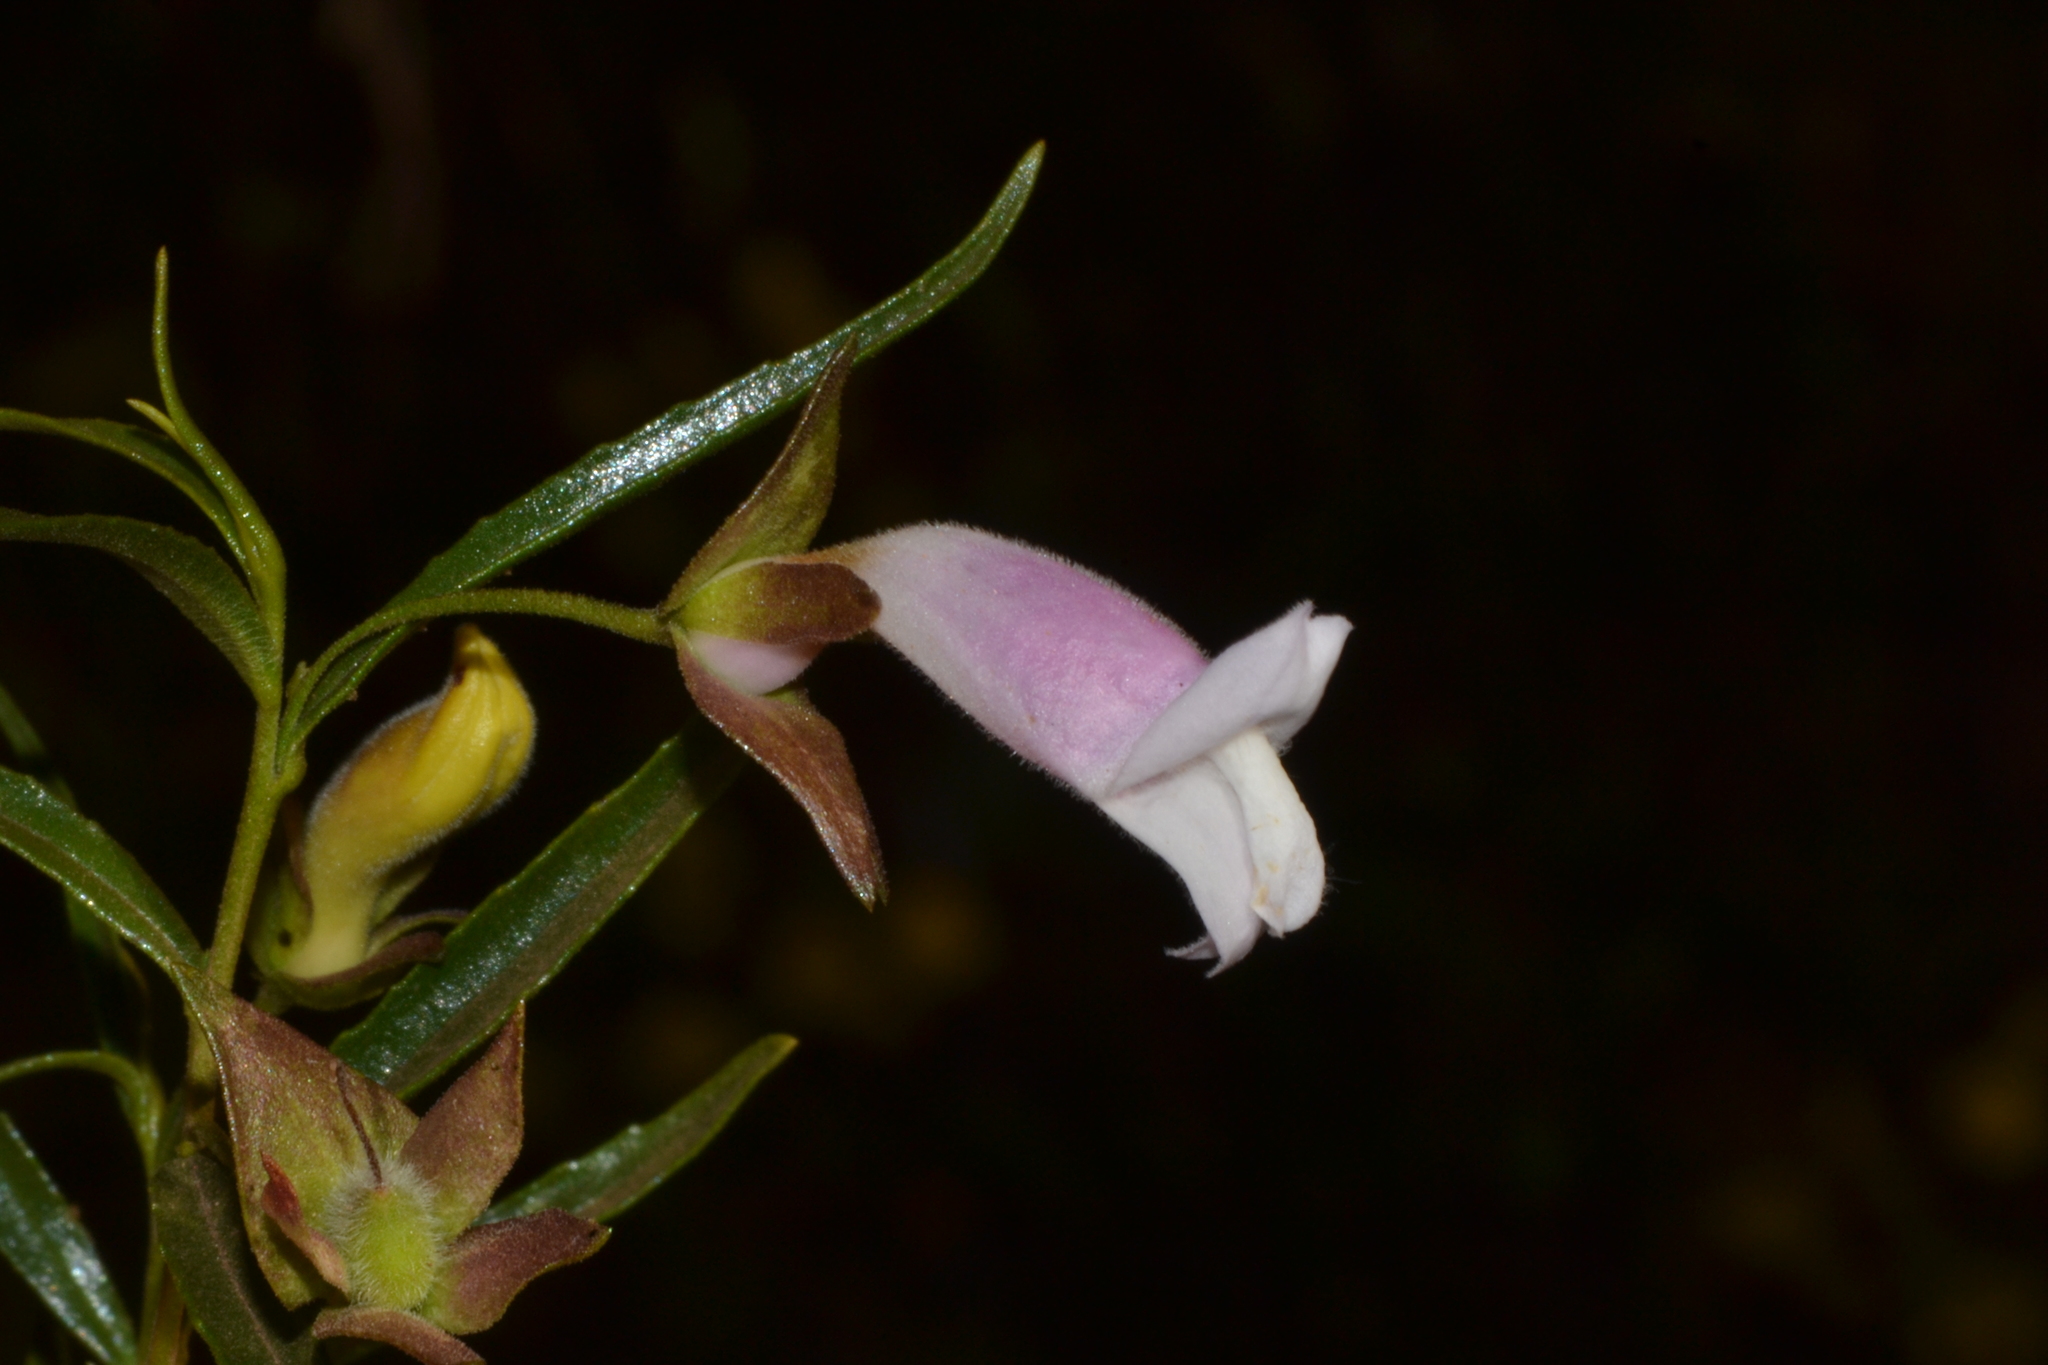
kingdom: Plantae
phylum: Tracheophyta
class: Magnoliopsida
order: Lamiales
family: Scrophulariaceae
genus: Eremophila
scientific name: Eremophila clarkei
